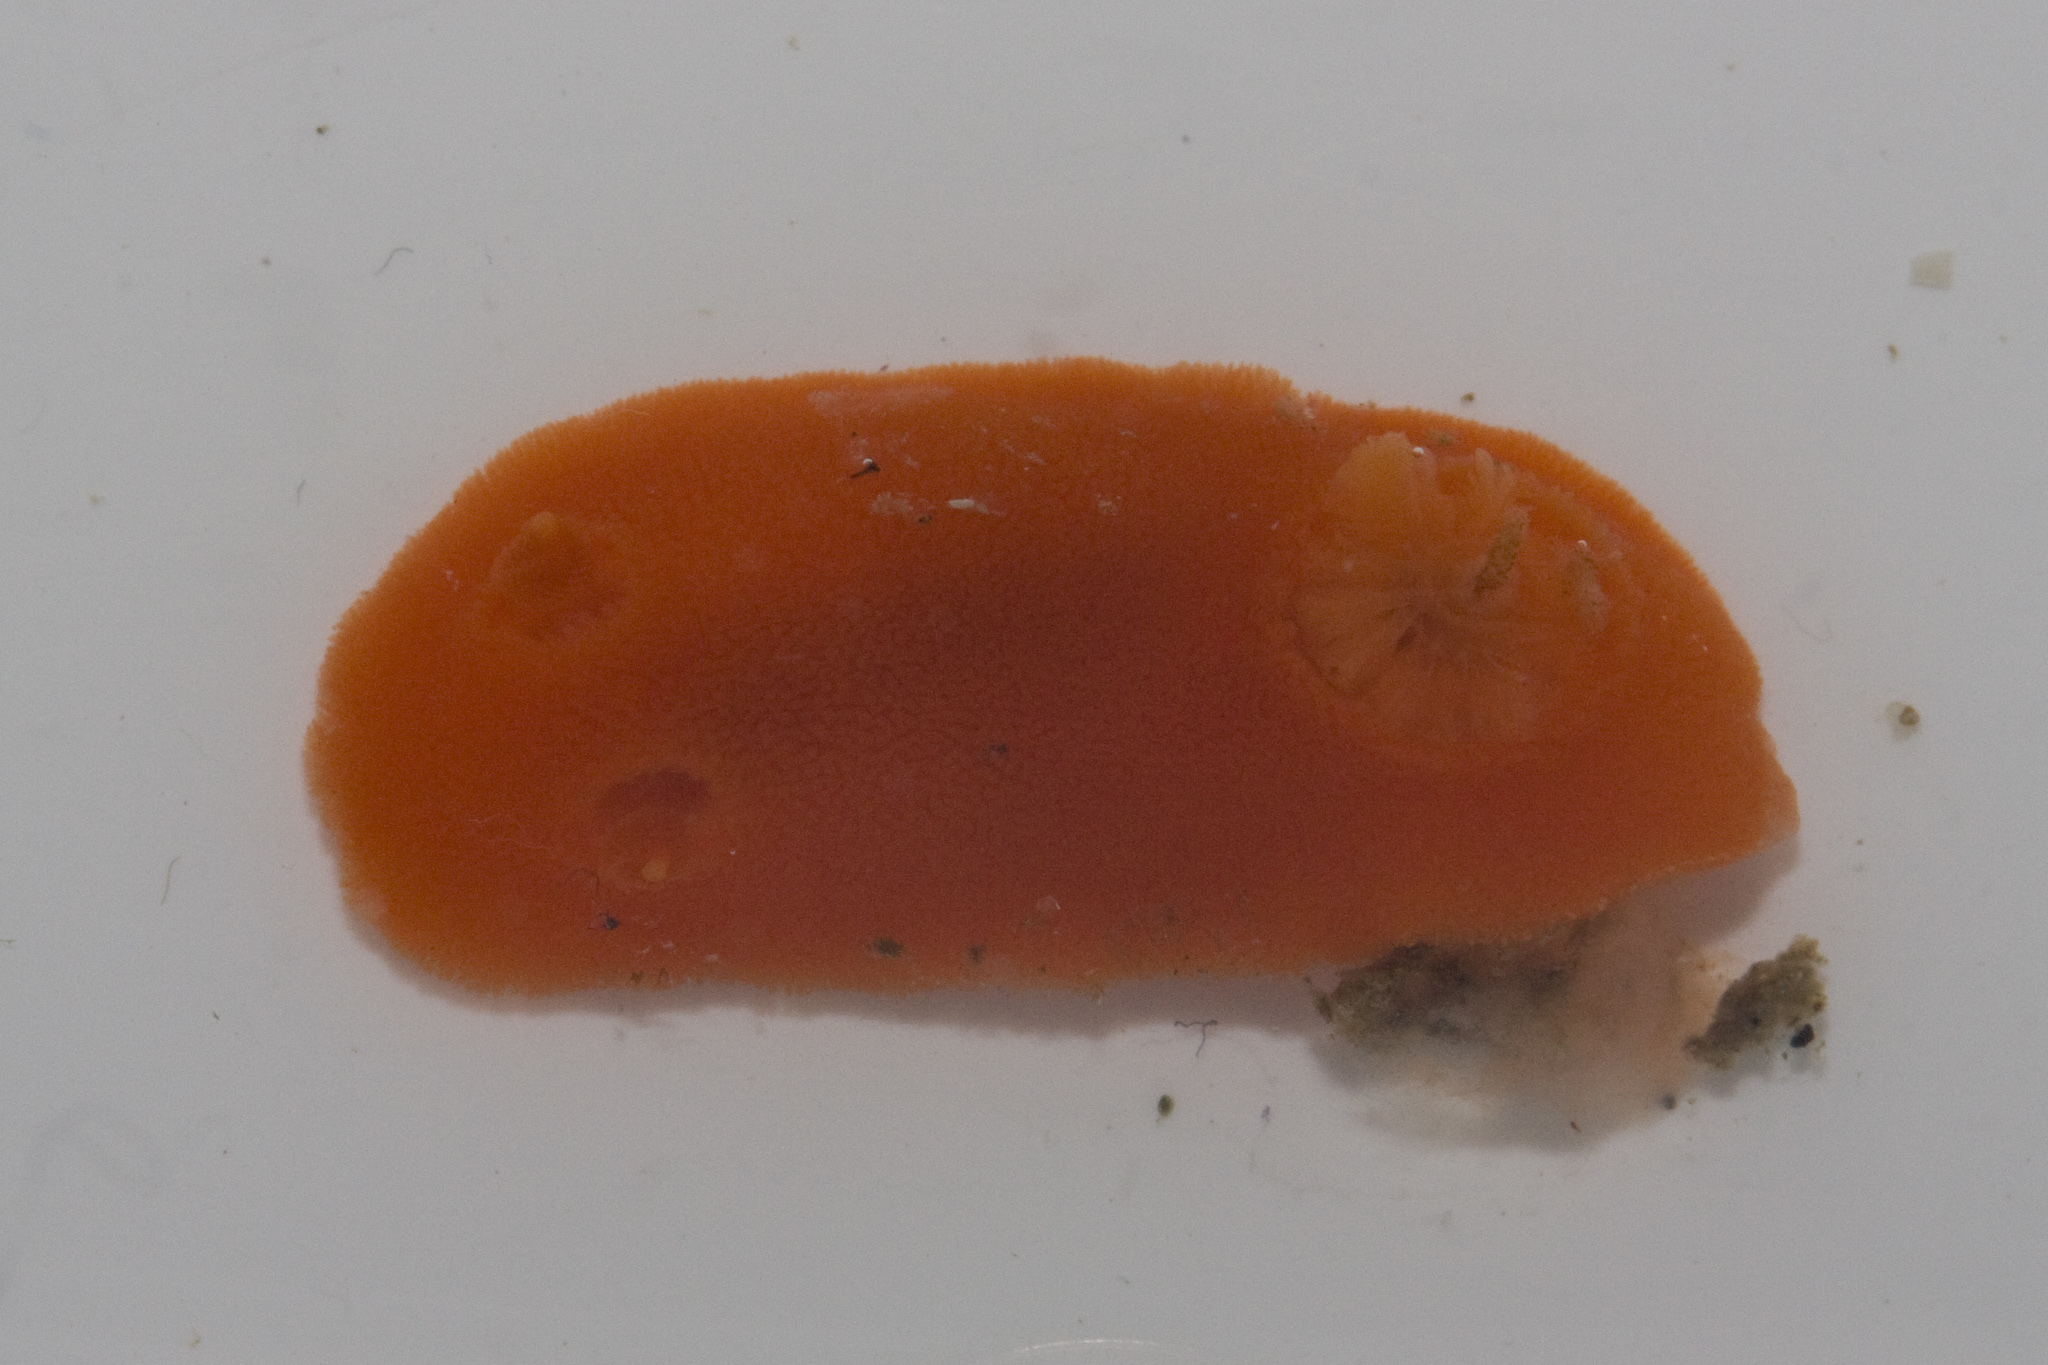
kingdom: Animalia
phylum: Mollusca
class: Gastropoda
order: Nudibranchia
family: Discodorididae
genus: Rostanga
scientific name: Rostanga pulchra
